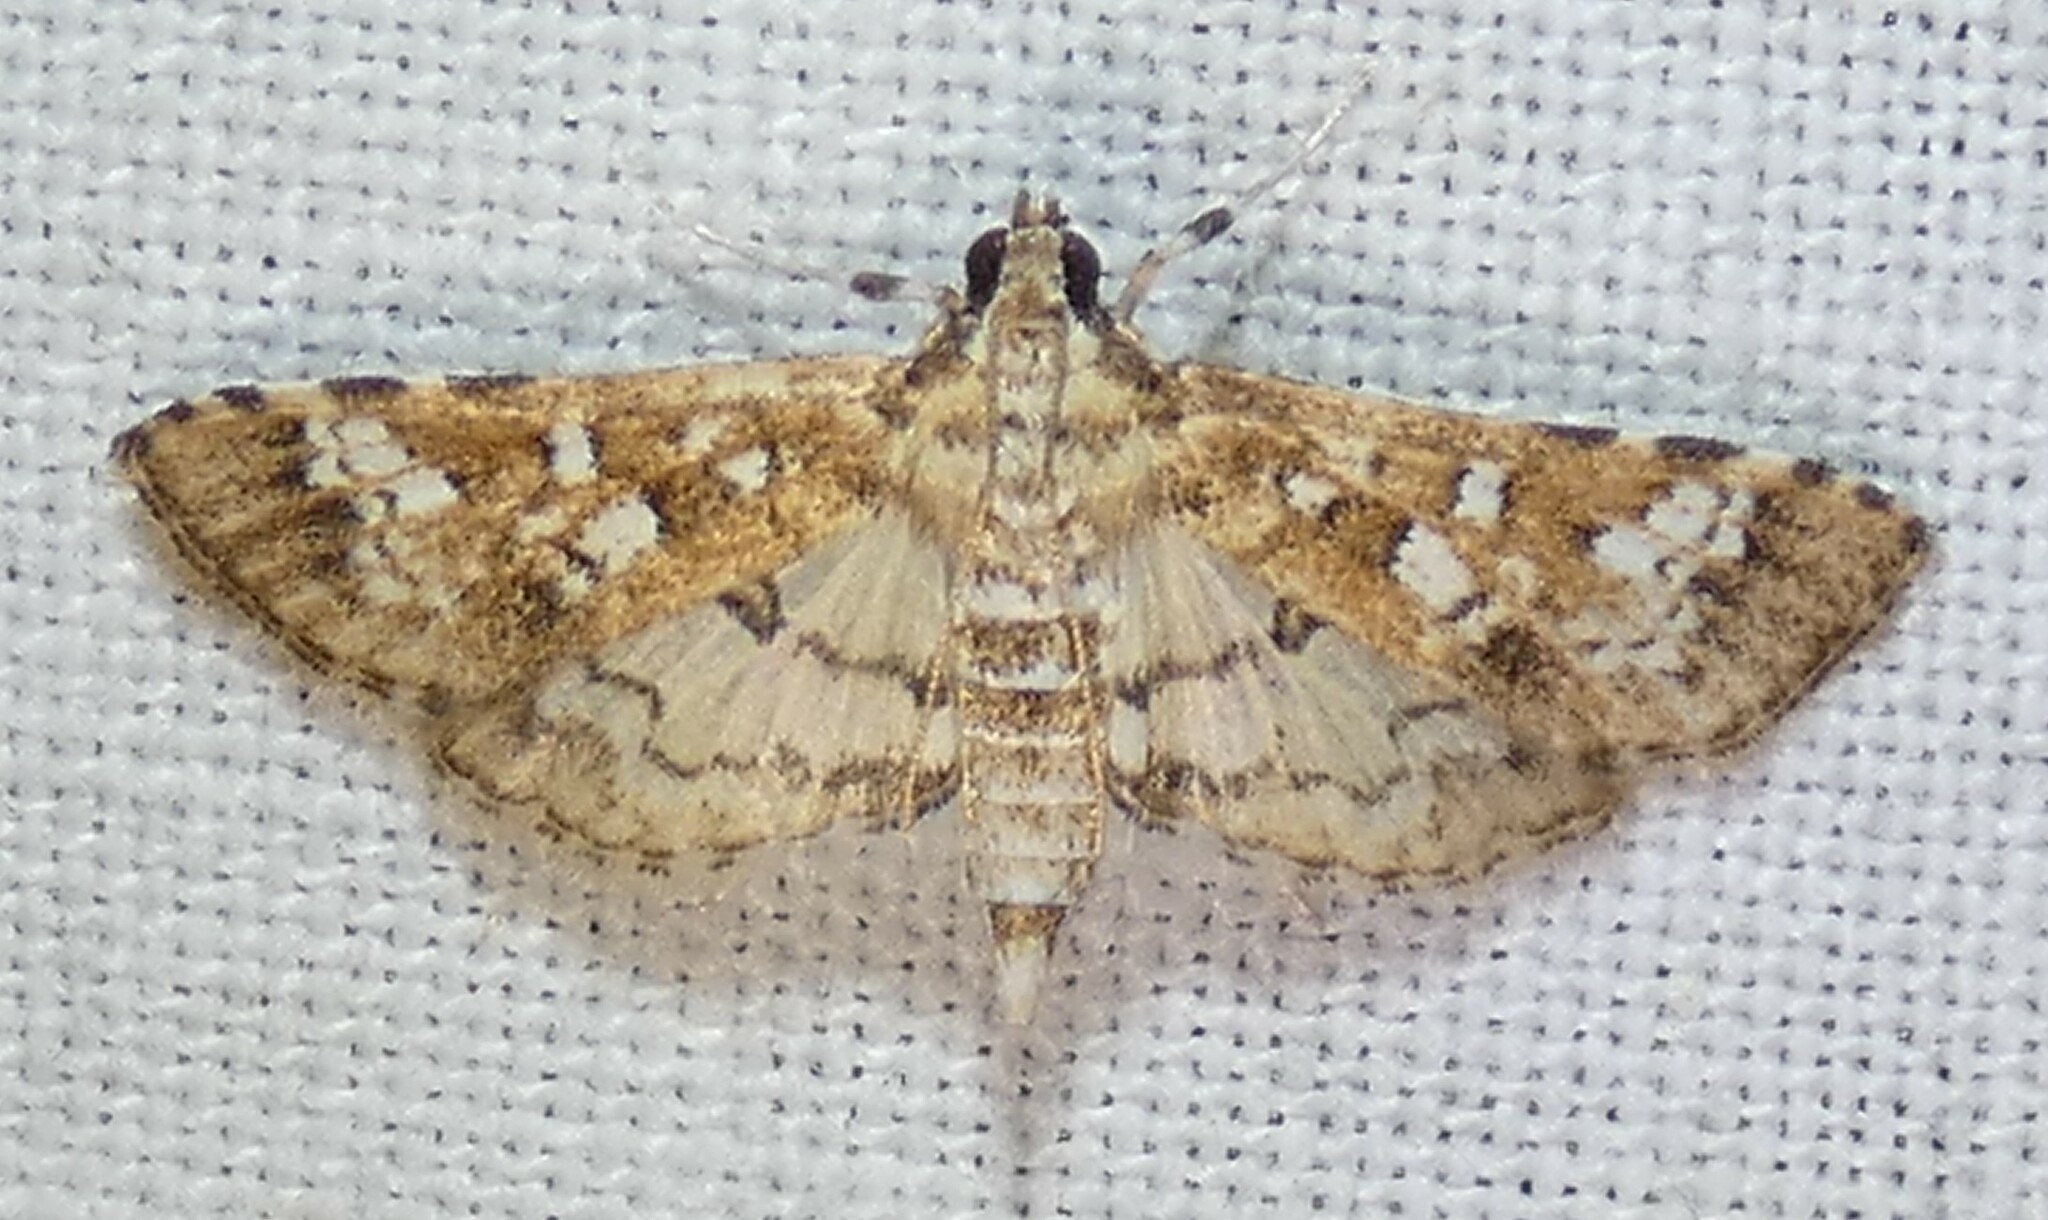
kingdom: Animalia
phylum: Arthropoda
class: Insecta
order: Lepidoptera
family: Crambidae
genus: Samea
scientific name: Samea multiplicalis
